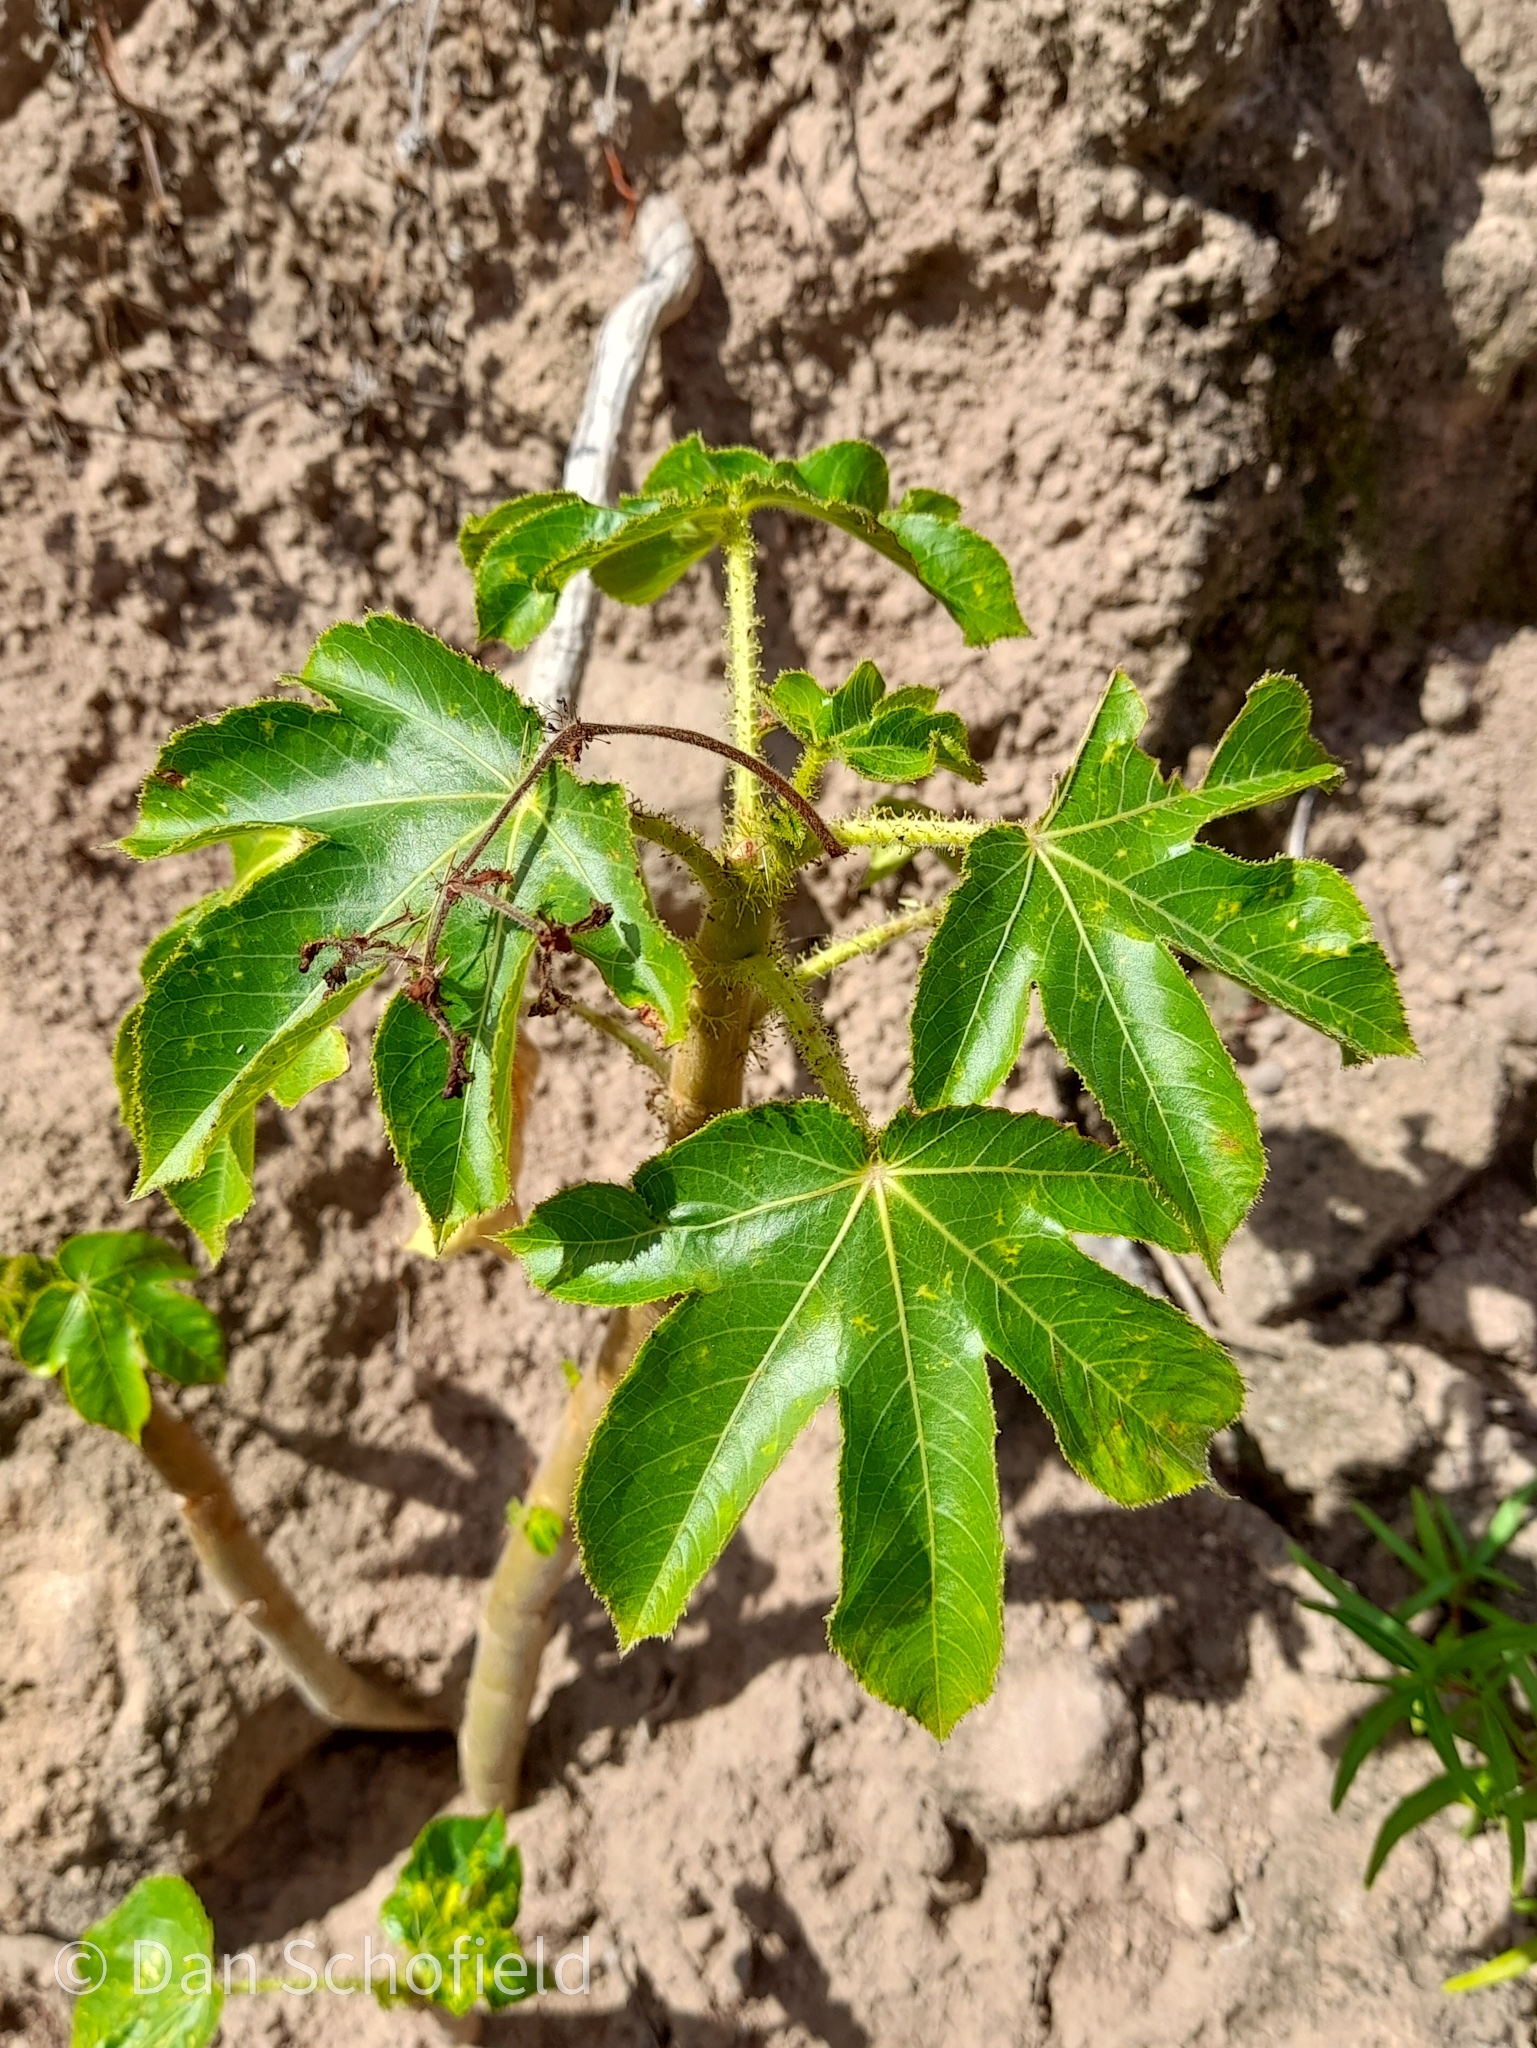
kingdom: Plantae
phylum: Tracheophyta
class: Magnoliopsida
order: Malpighiales
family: Euphorbiaceae
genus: Jatropha
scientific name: Jatropha gossypiifolia
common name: Bellyache bush
